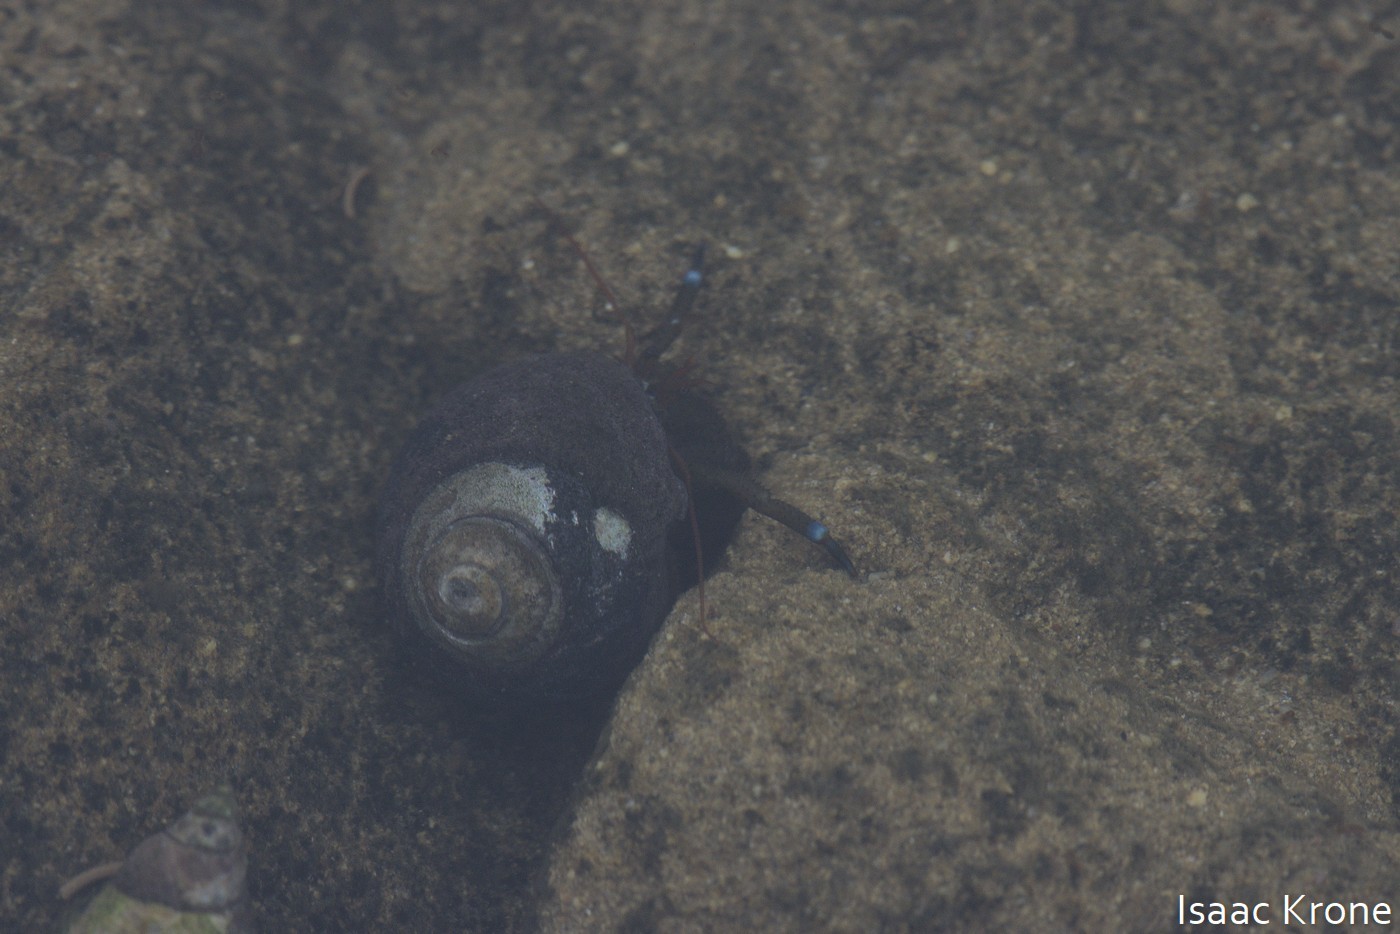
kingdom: Animalia
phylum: Arthropoda
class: Malacostraca
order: Decapoda
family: Paguridae
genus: Pagurus
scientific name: Pagurus samuelis
